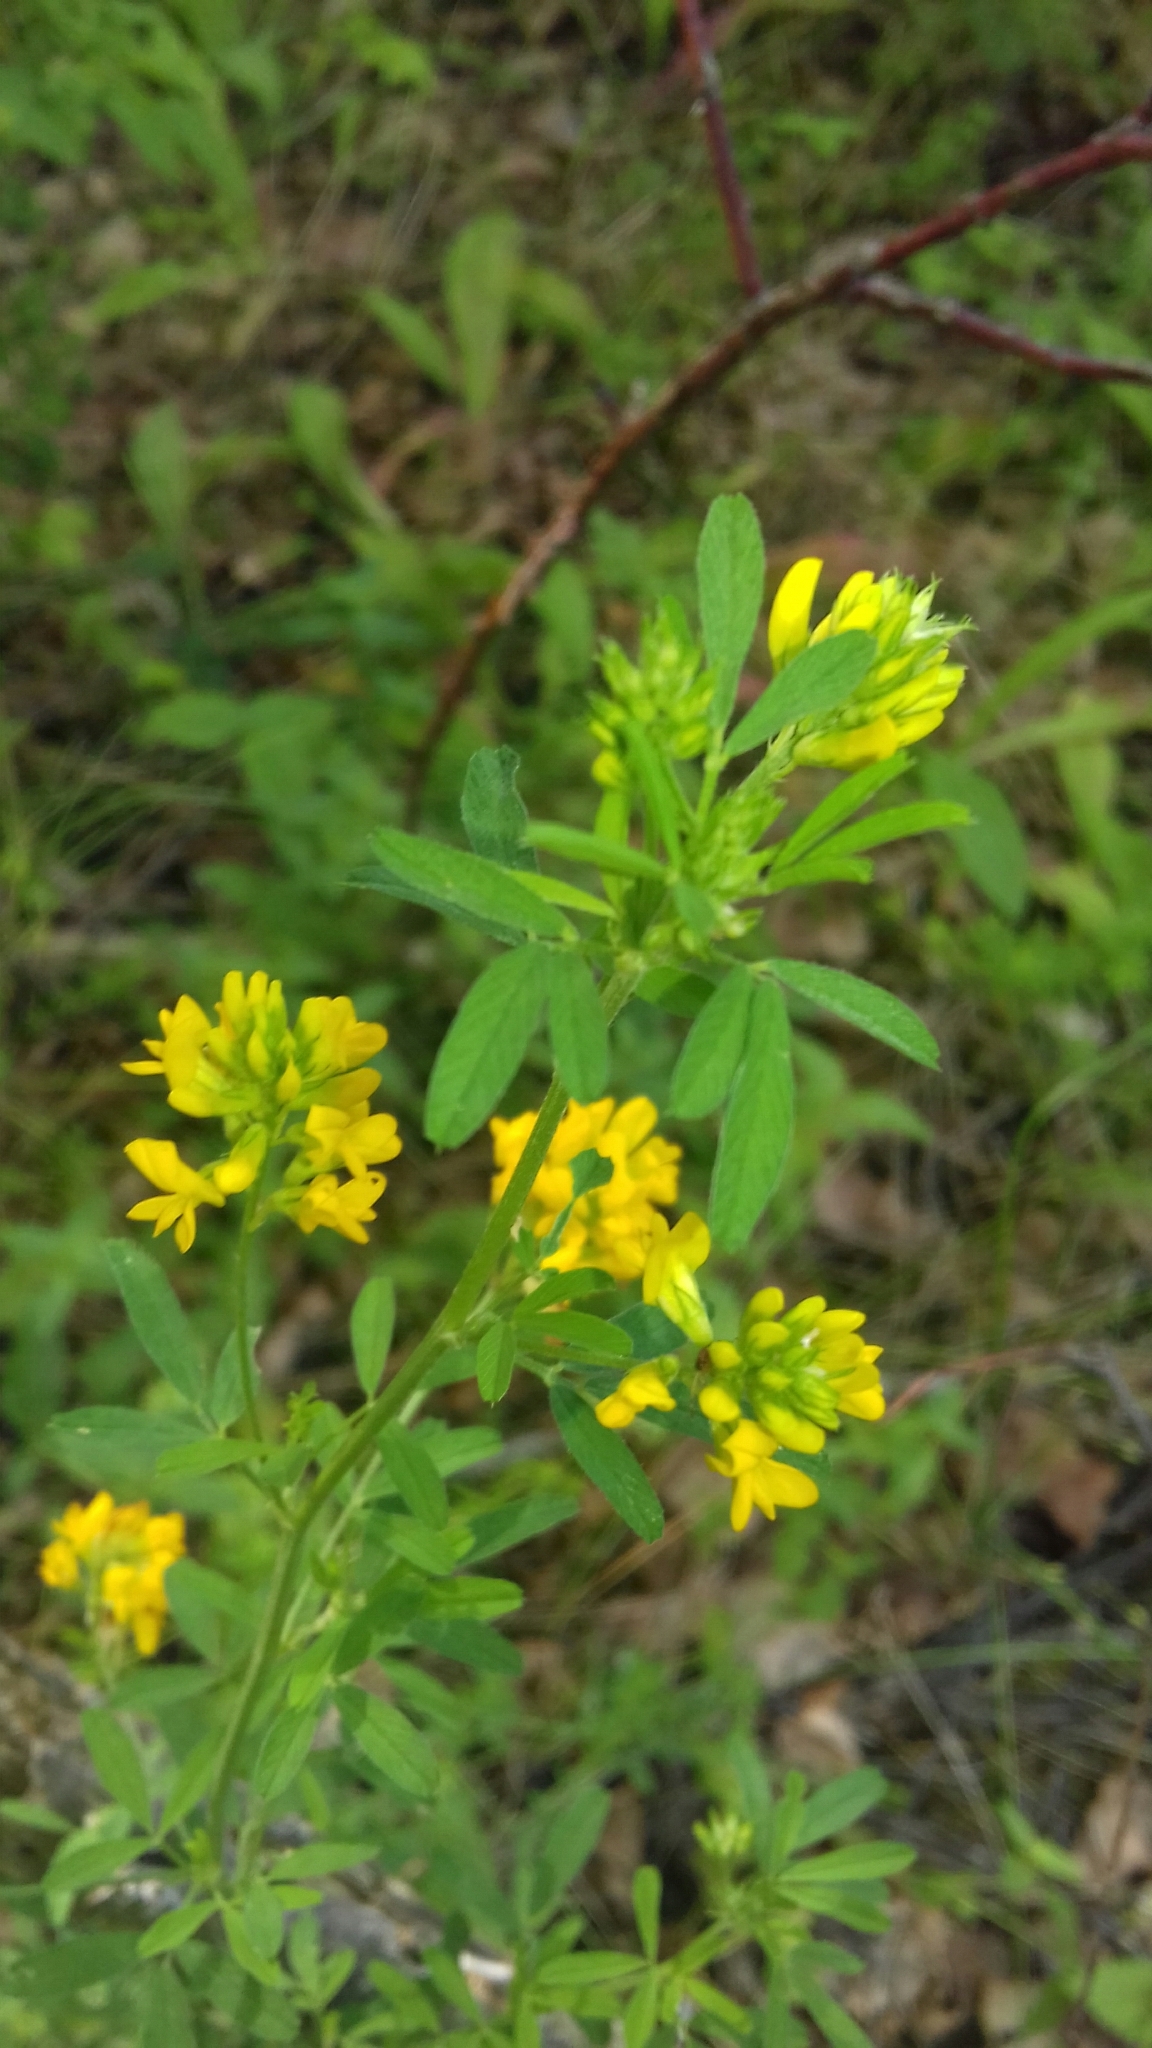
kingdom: Plantae
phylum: Tracheophyta
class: Magnoliopsida
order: Fabales
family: Fabaceae
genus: Medicago
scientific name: Medicago falcata
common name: Sickle medick
